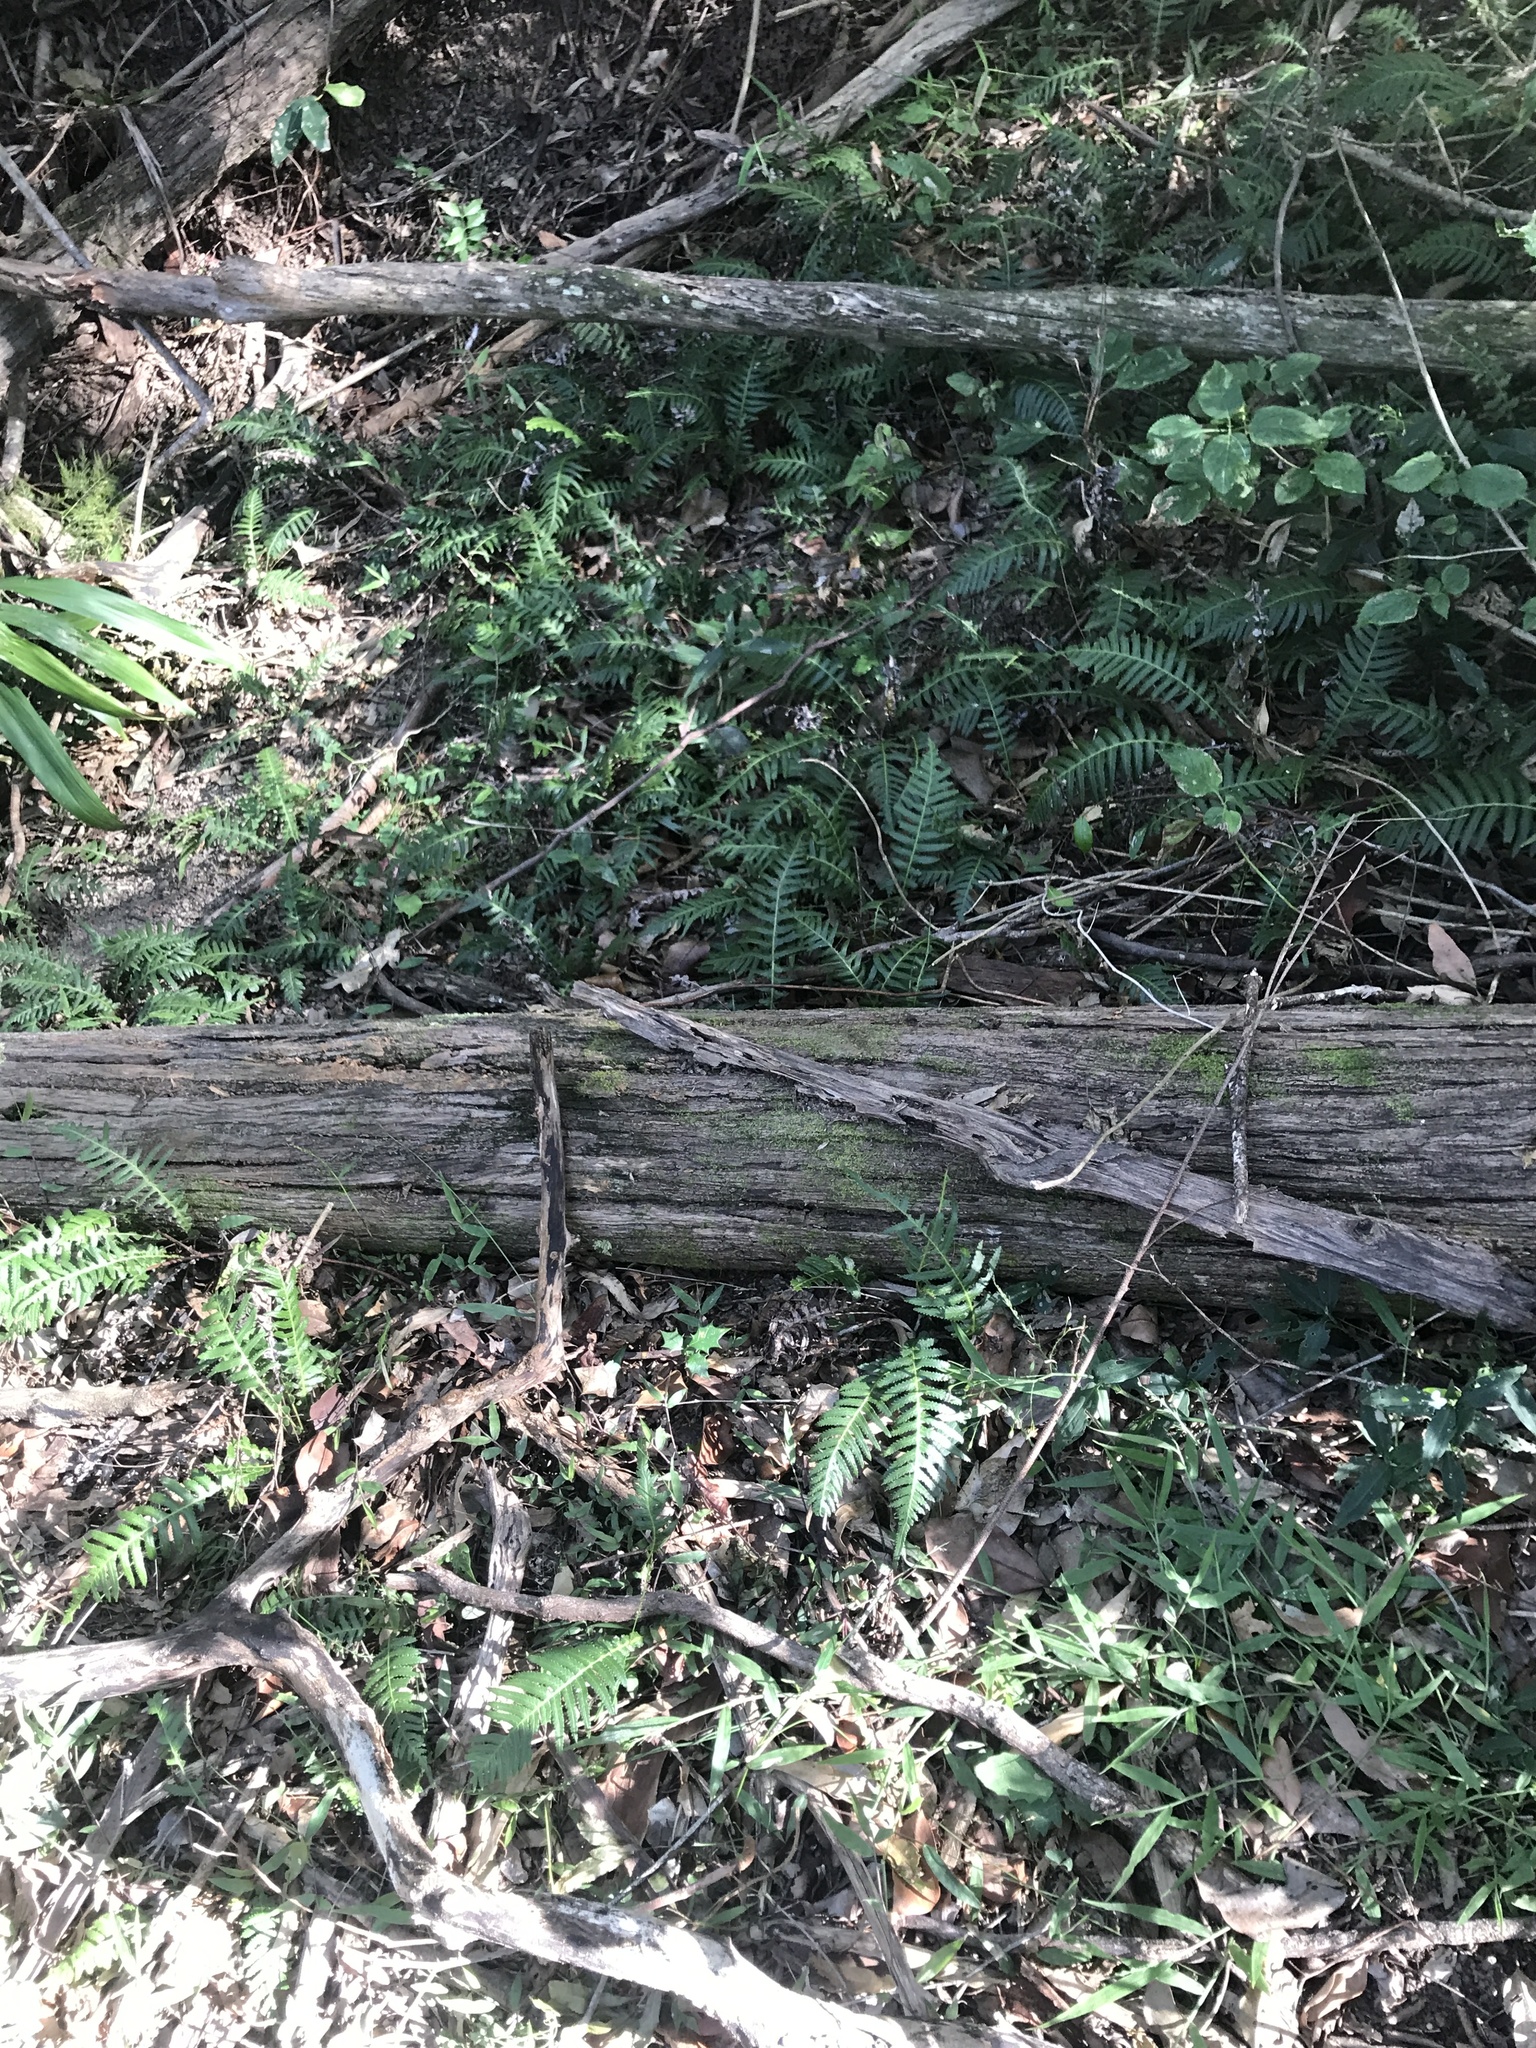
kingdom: Plantae
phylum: Tracheophyta
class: Polypodiopsida
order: Polypodiales
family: Blechnaceae
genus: Doodia
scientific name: Doodia aspera
